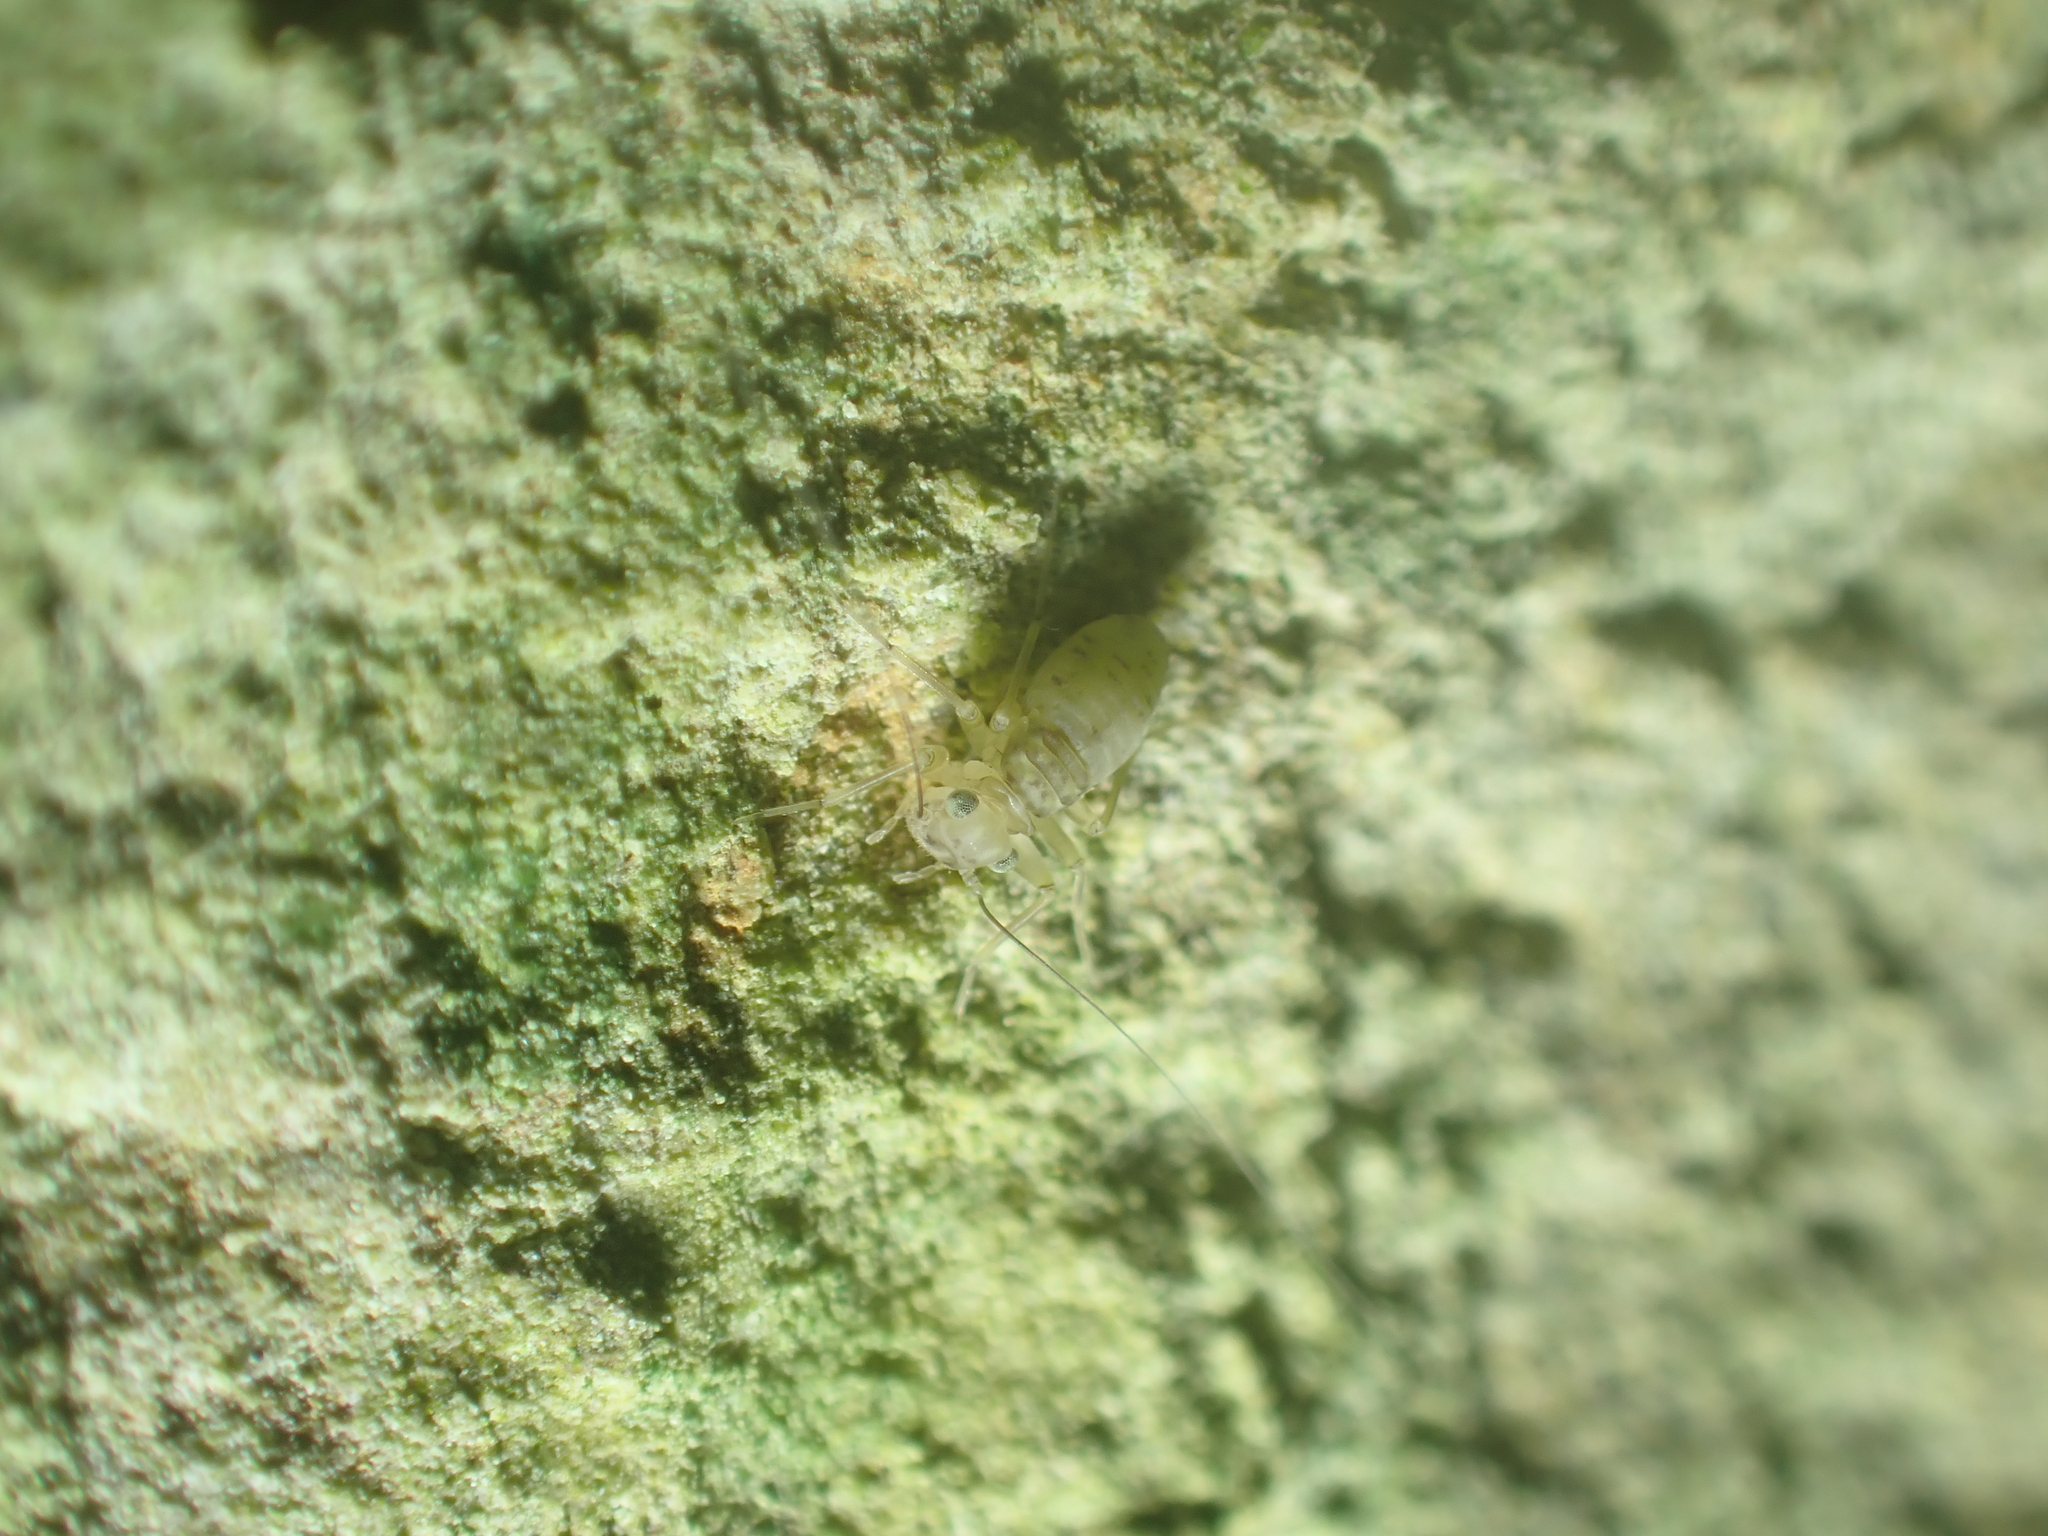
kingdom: Animalia
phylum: Arthropoda
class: Insecta
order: Psocodea
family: Prionoglarididae
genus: Prionoglaris
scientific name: Prionoglaris stygia
